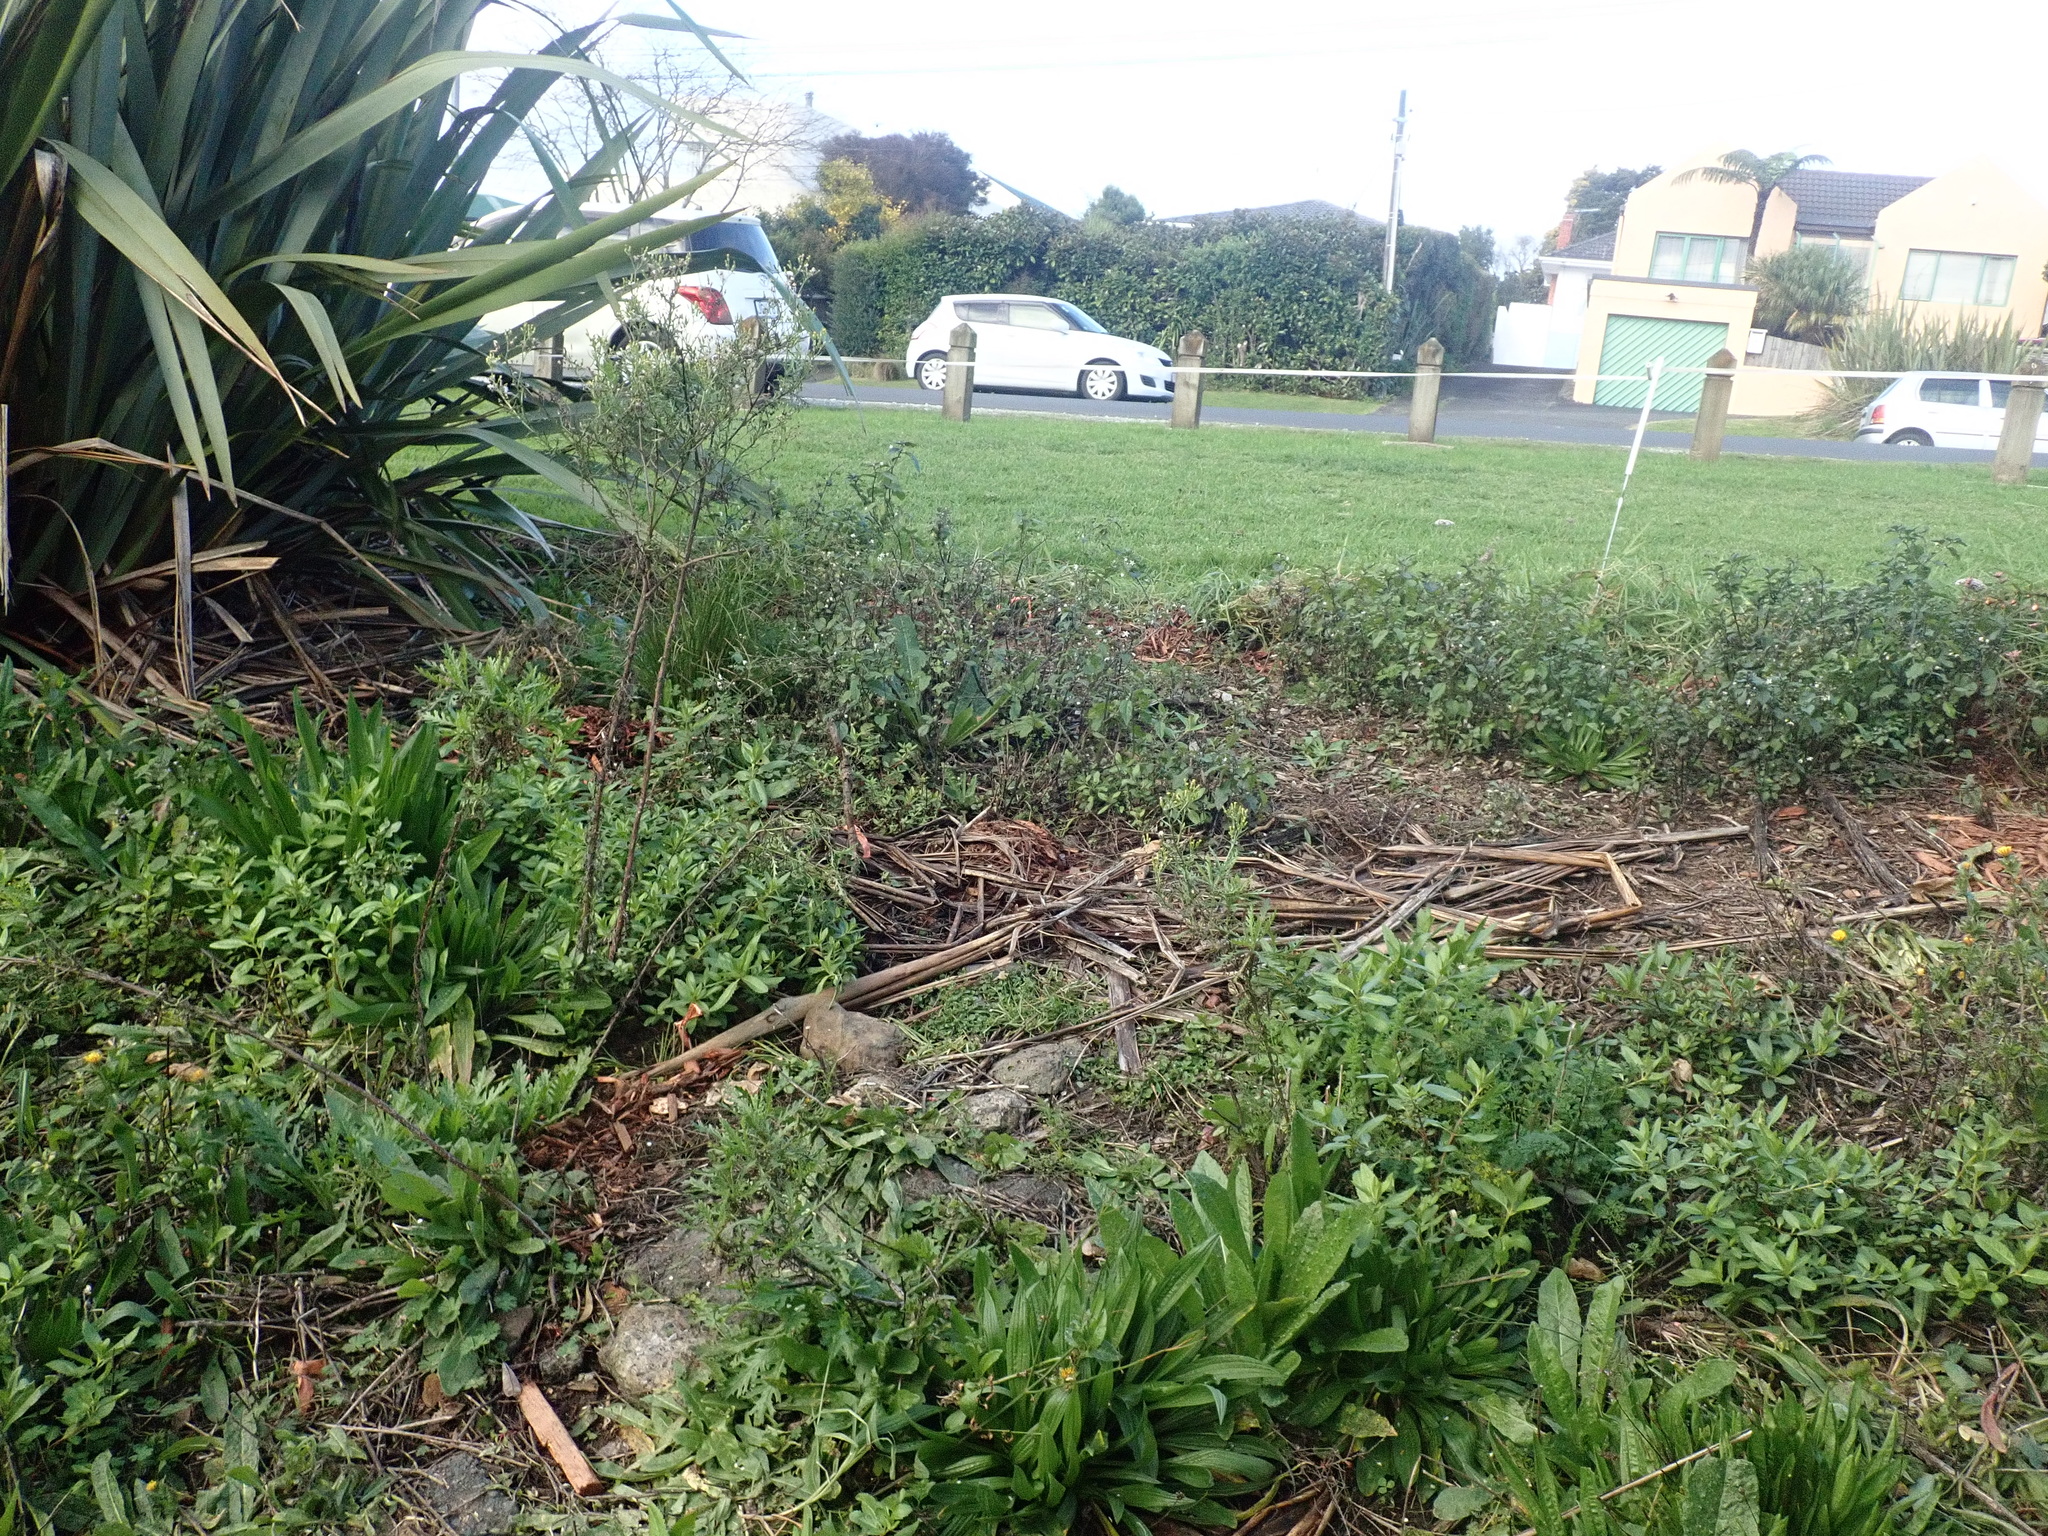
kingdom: Plantae
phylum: Tracheophyta
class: Magnoliopsida
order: Lamiales
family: Plantaginaceae
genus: Plantago
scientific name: Plantago lanceolata
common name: Ribwort plantain
